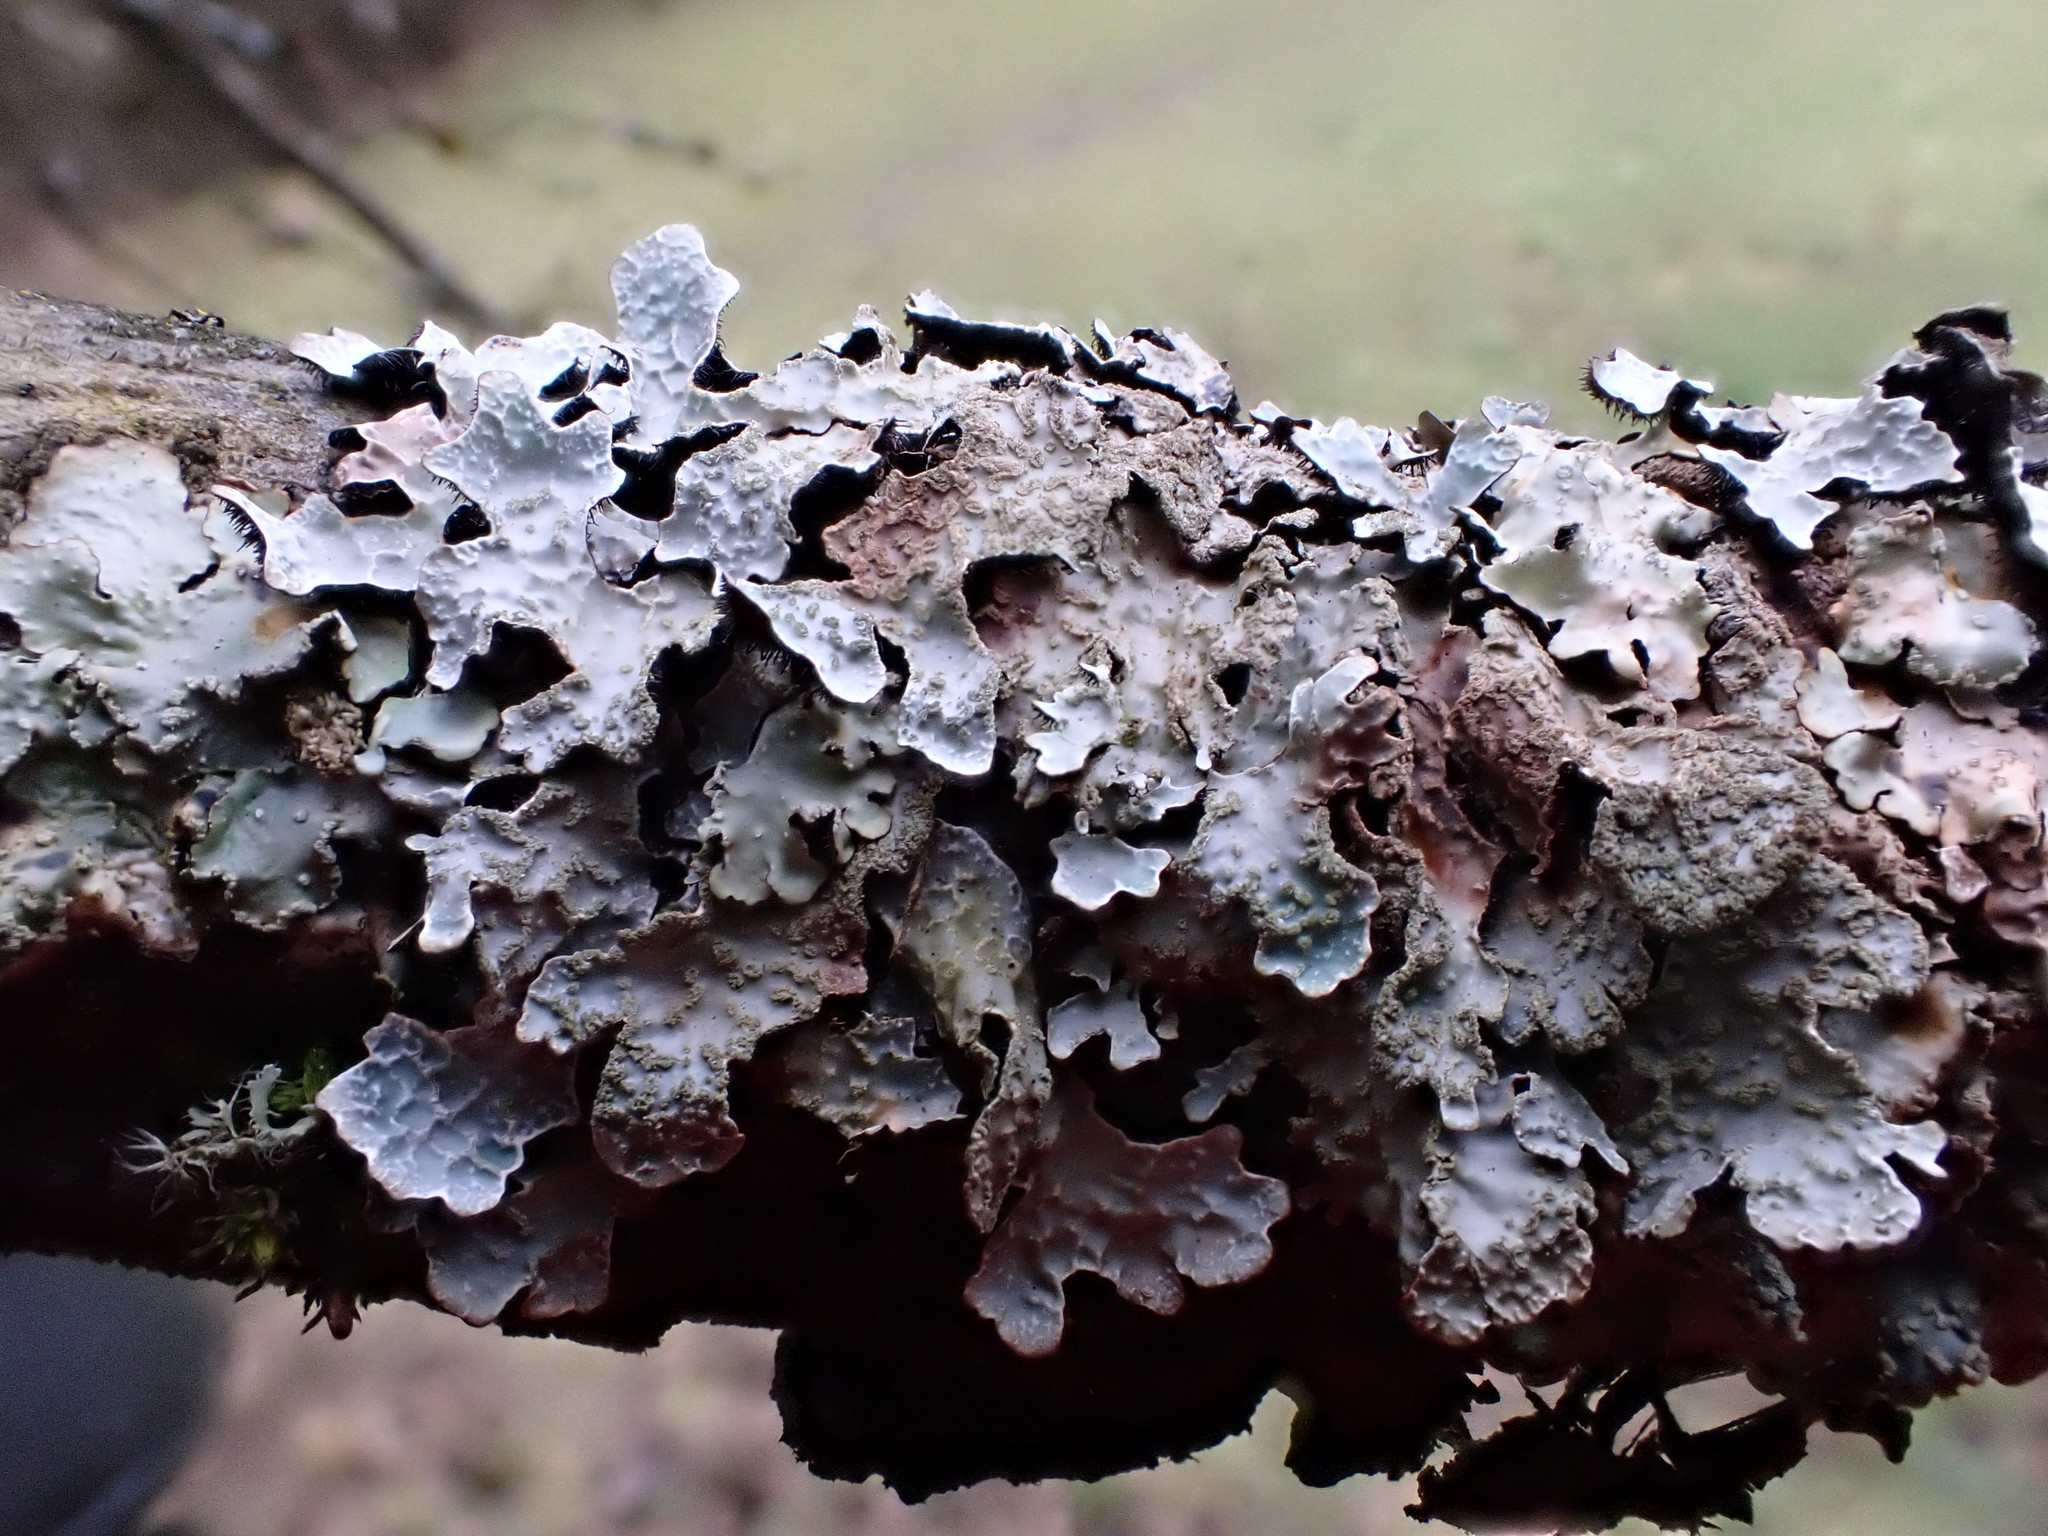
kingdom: Fungi
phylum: Ascomycota
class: Lecanoromycetes
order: Lecanorales
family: Parmeliaceae
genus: Parmelia
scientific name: Parmelia sulcata
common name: Netted shield lichen
